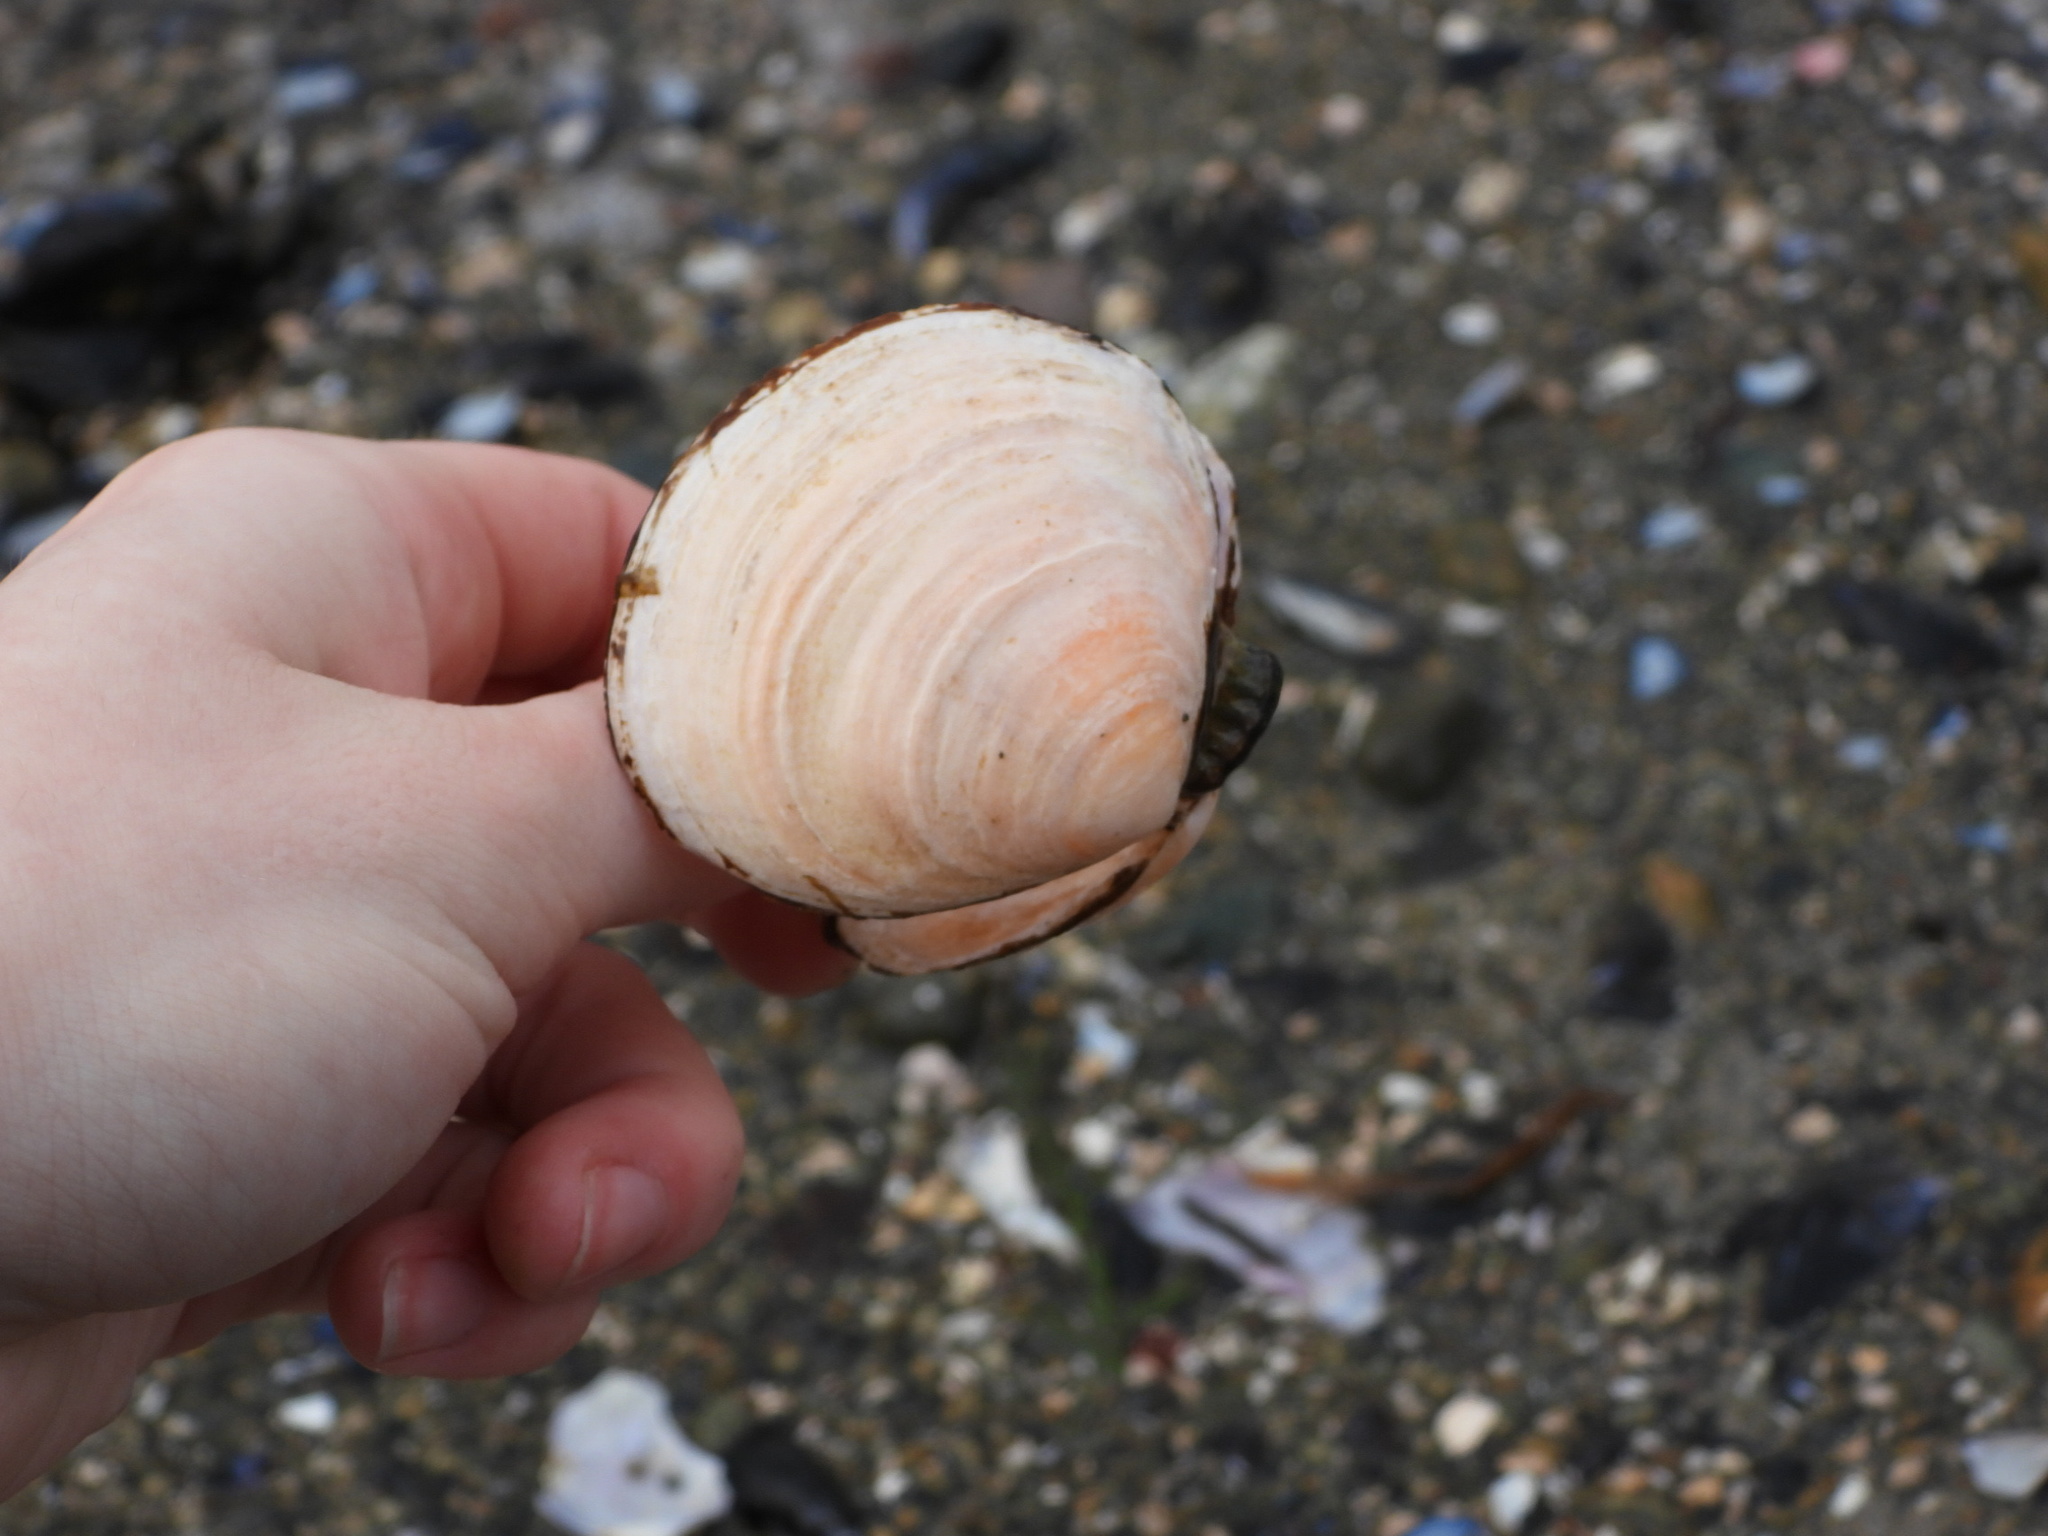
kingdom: Animalia
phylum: Mollusca
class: Bivalvia
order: Cardiida
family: Psammobiidae
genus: Nuttallia
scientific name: Nuttallia obscurata
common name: Purple mahogany-clam
